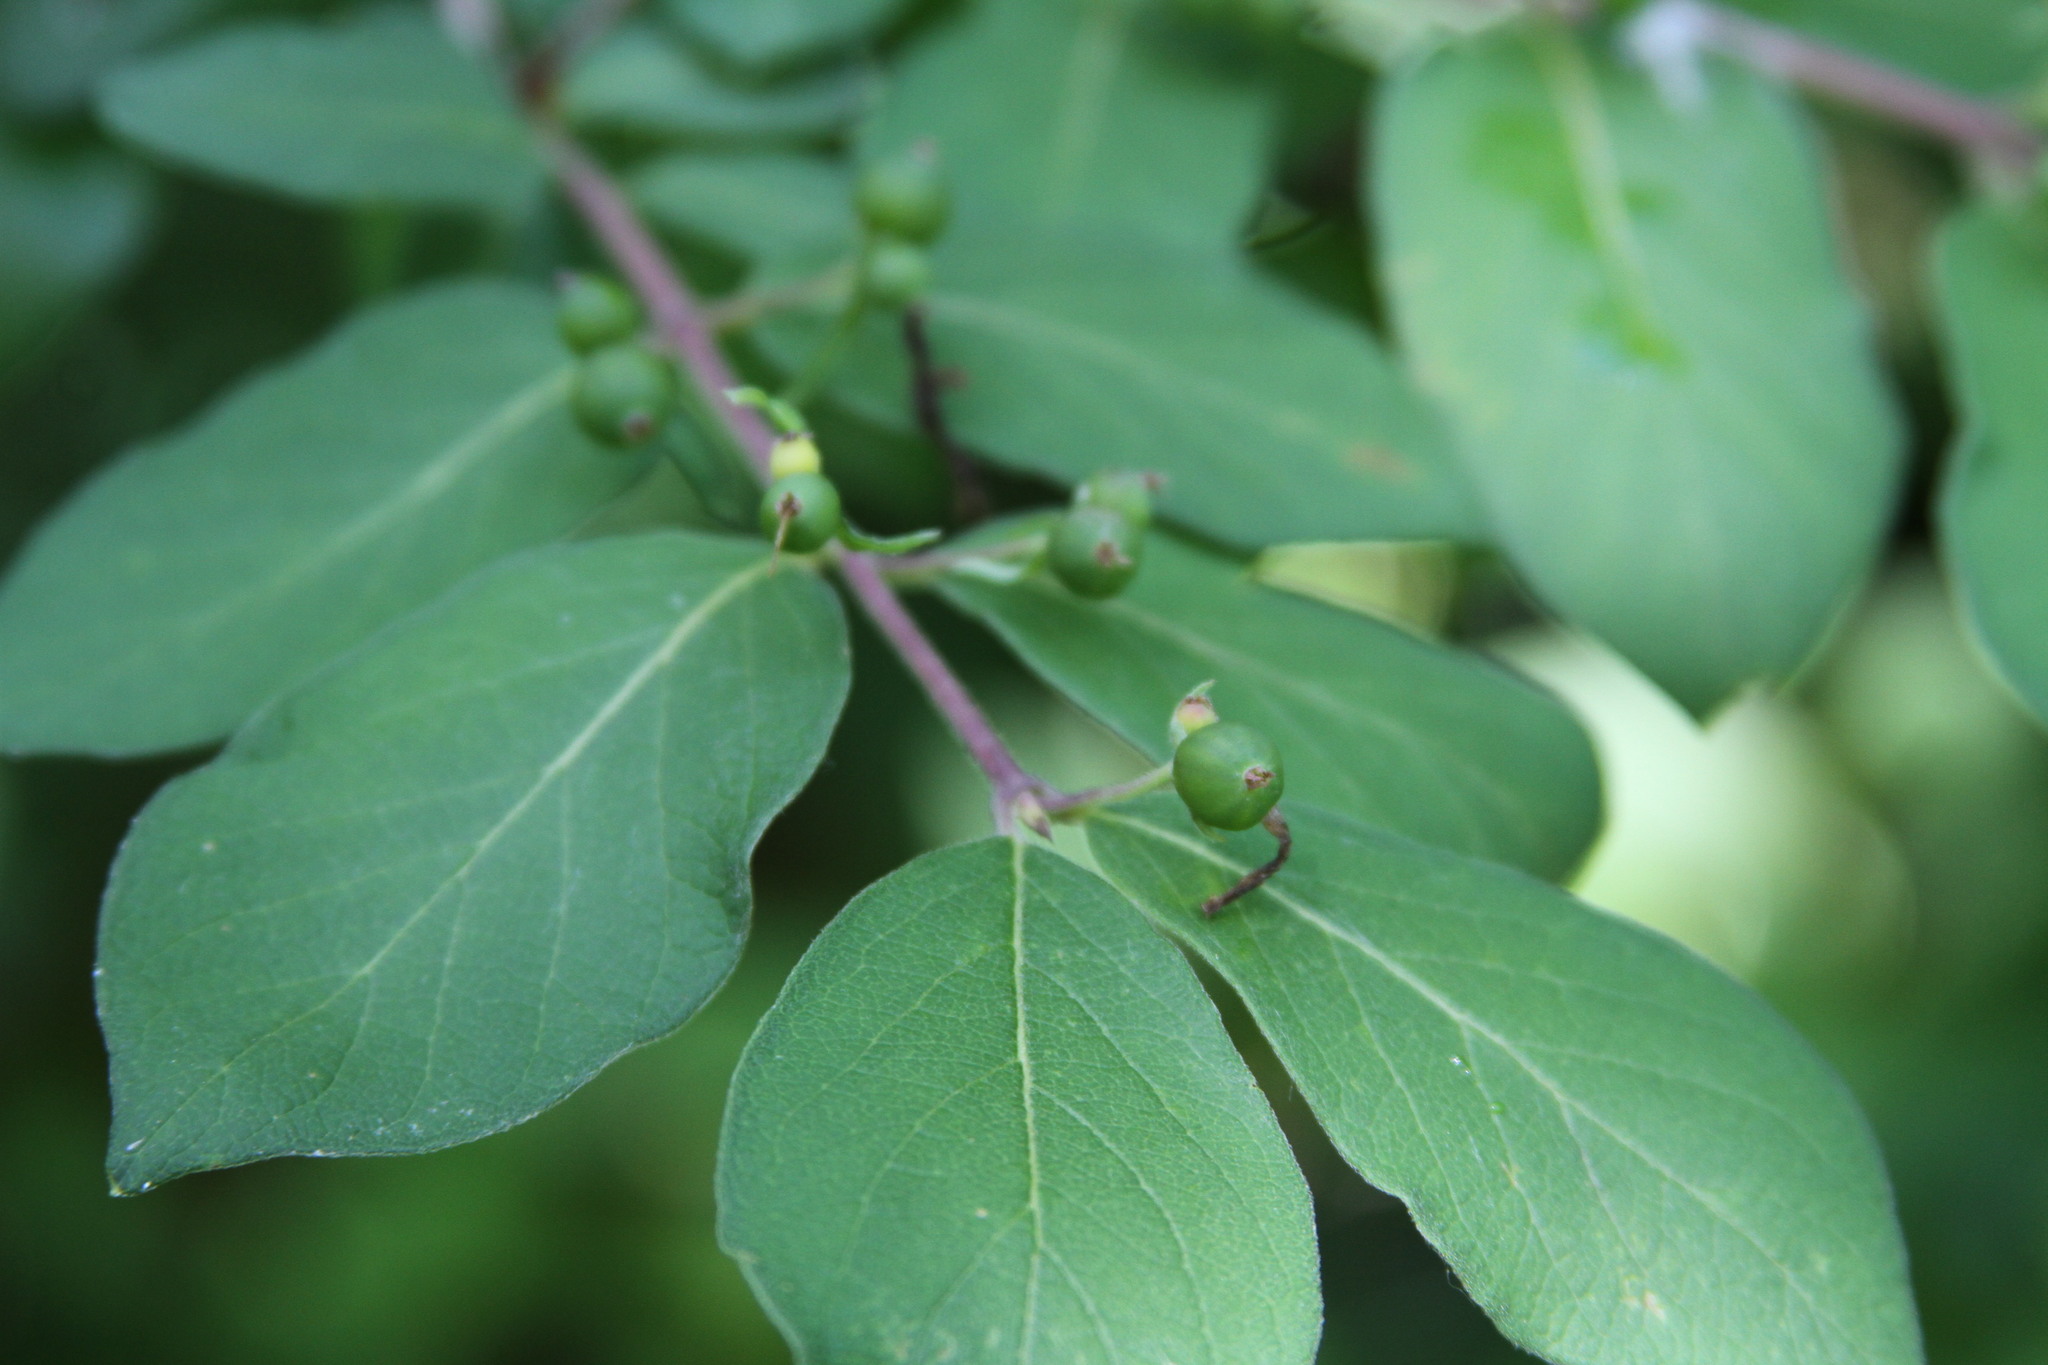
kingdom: Plantae
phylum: Tracheophyta
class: Magnoliopsida
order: Dipsacales
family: Caprifoliaceae
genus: Lonicera
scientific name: Lonicera
